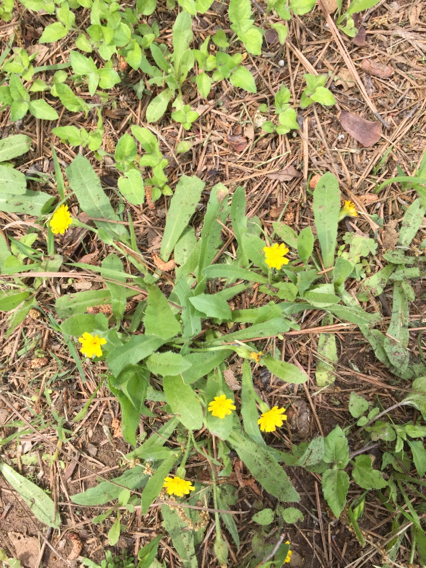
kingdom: Plantae
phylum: Tracheophyta
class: Magnoliopsida
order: Asterales
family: Asteraceae
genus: Hedypnois
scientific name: Hedypnois rhagadioloides
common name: Cretan weed
